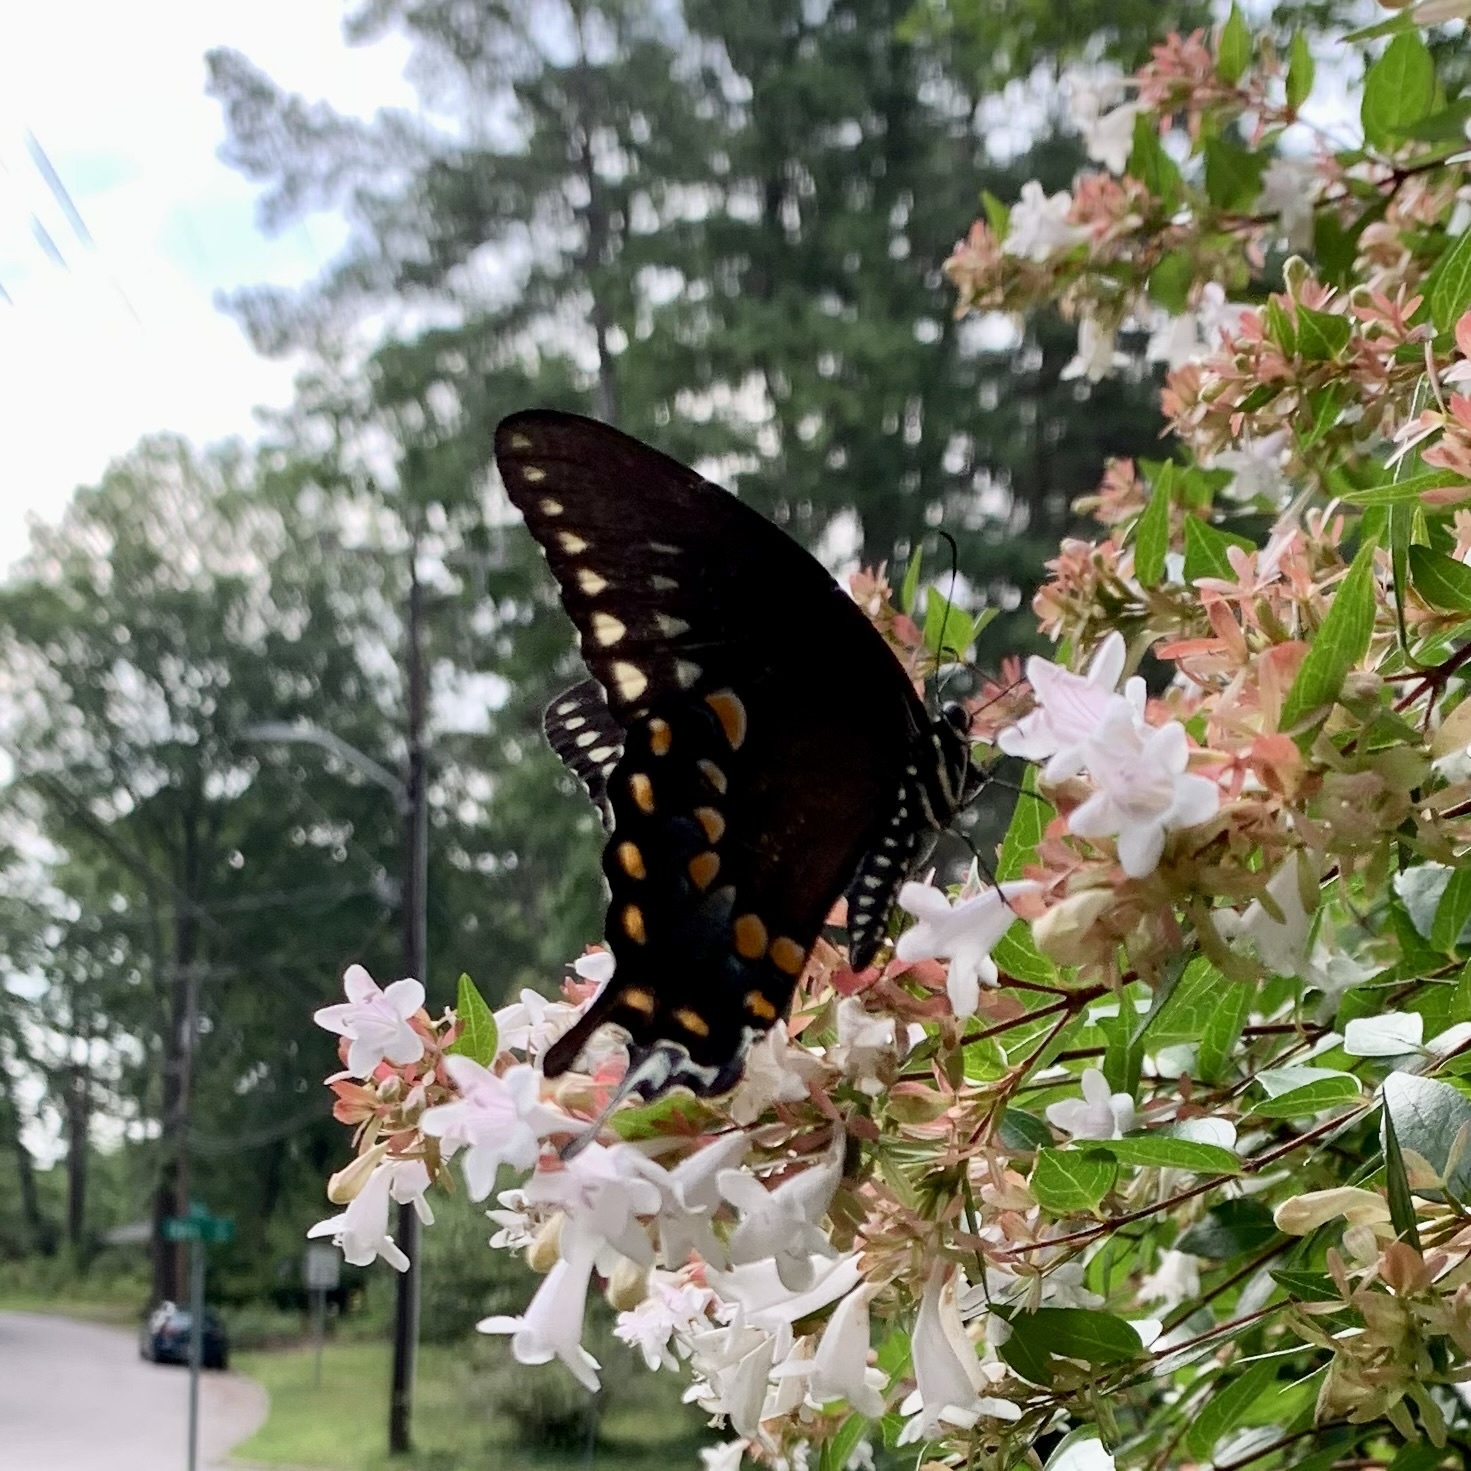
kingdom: Animalia
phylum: Arthropoda
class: Insecta
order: Lepidoptera
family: Papilionidae
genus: Papilio
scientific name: Papilio troilus
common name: Spicebush swallowtail
